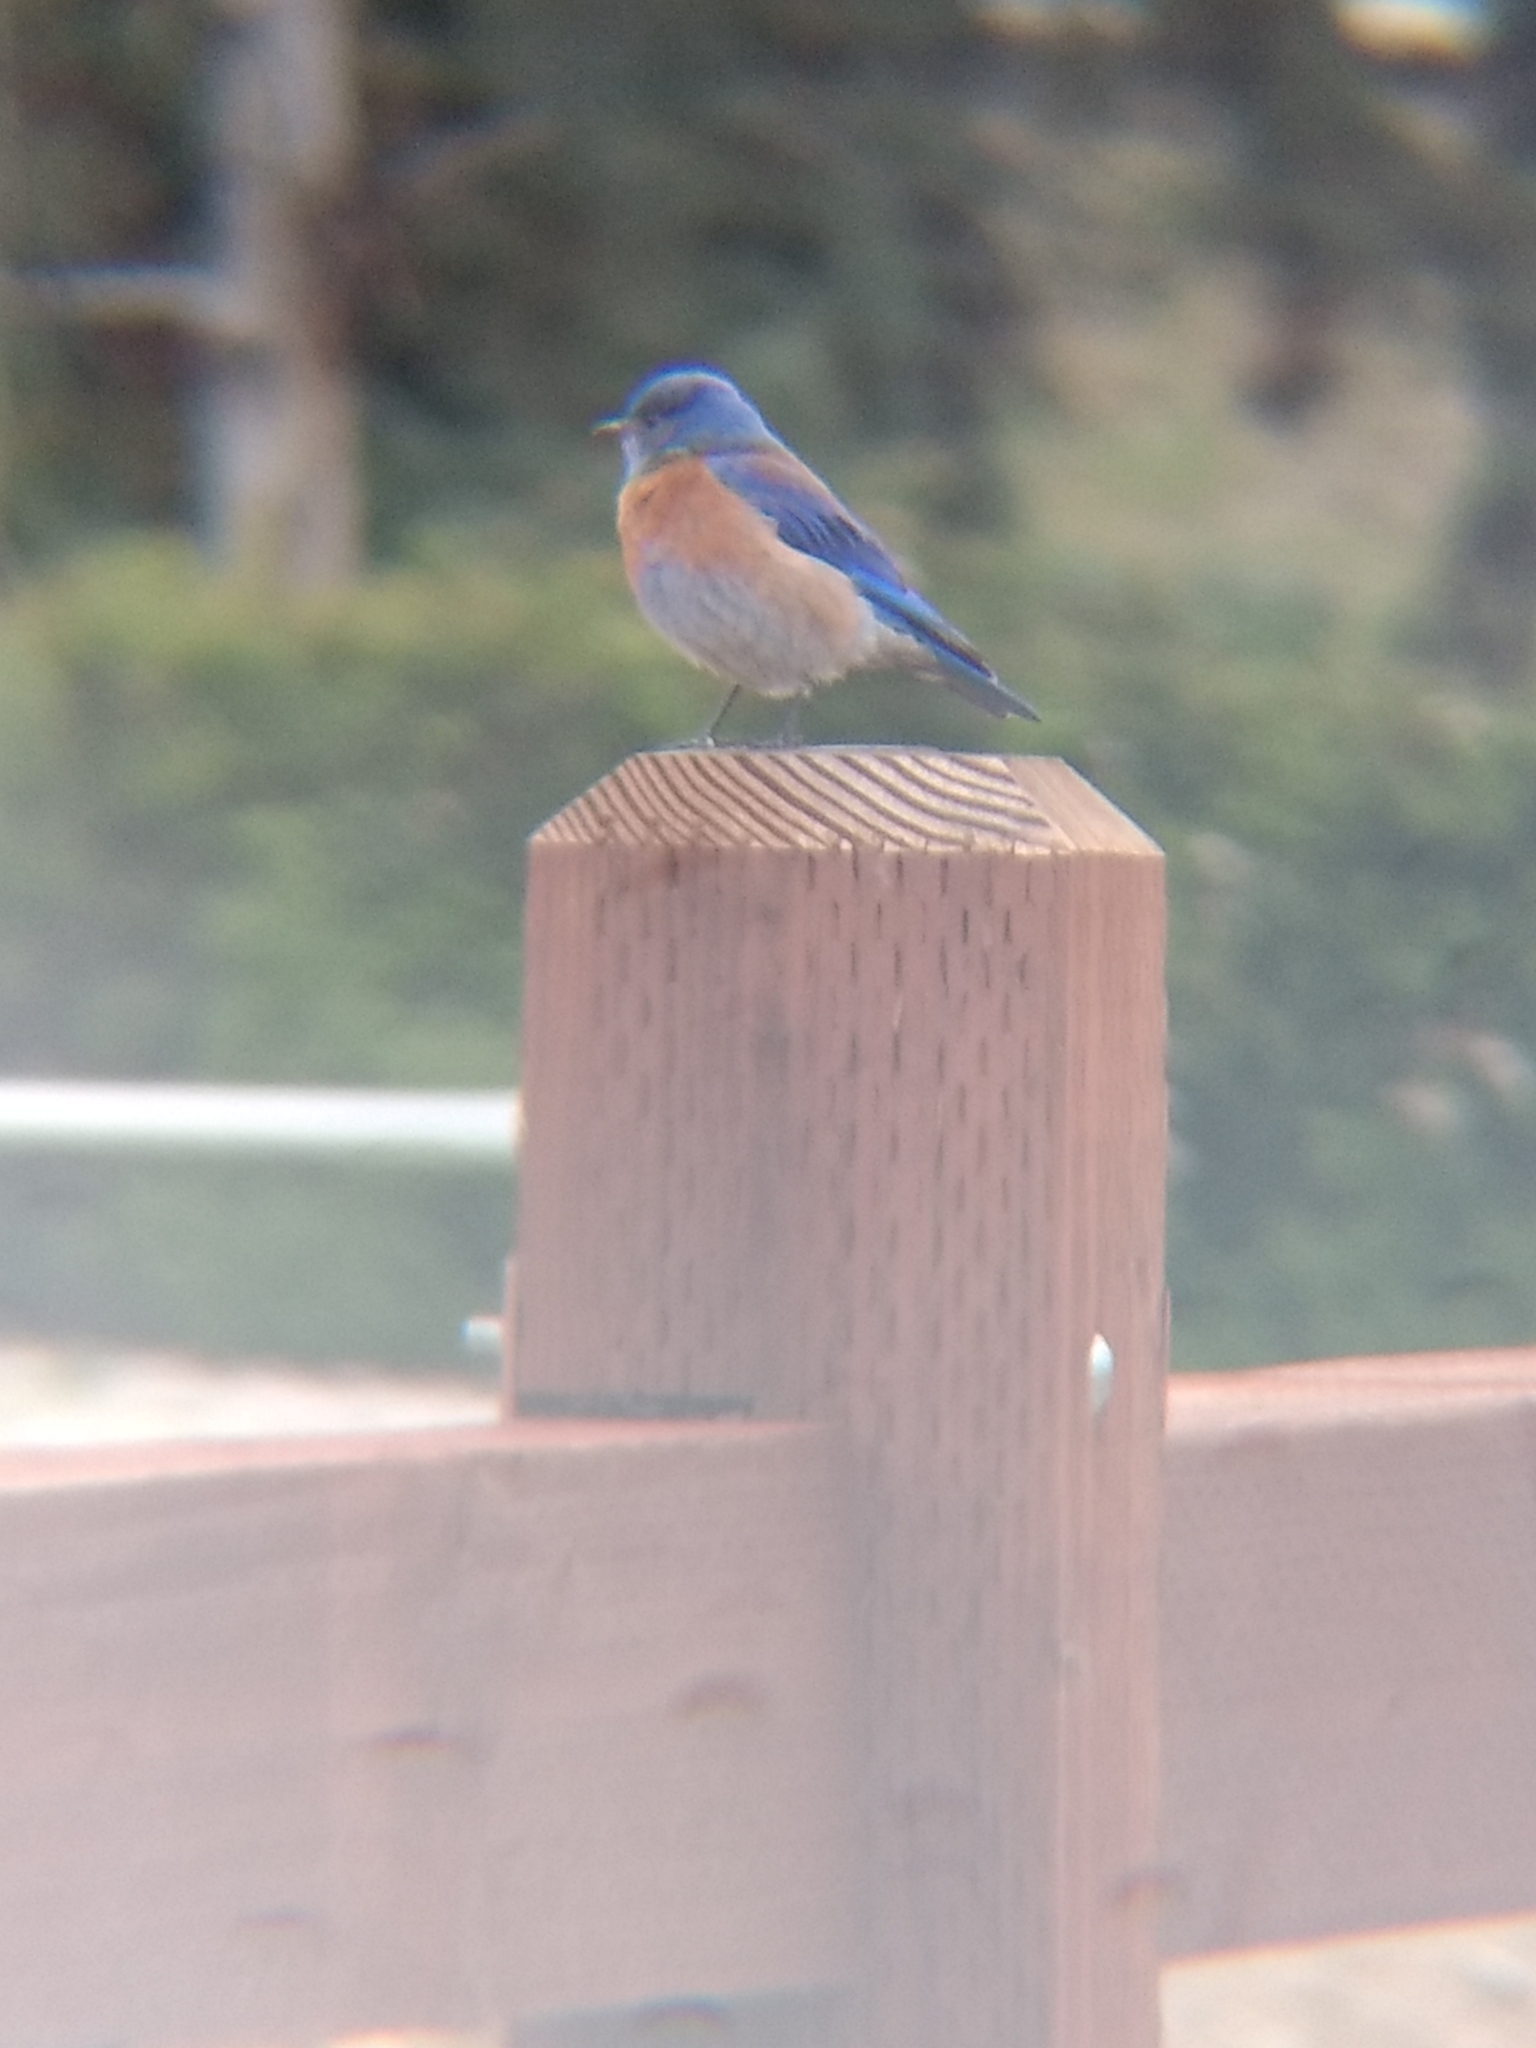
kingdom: Animalia
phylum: Chordata
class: Aves
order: Passeriformes
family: Turdidae
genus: Sialia
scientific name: Sialia mexicana
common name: Western bluebird
